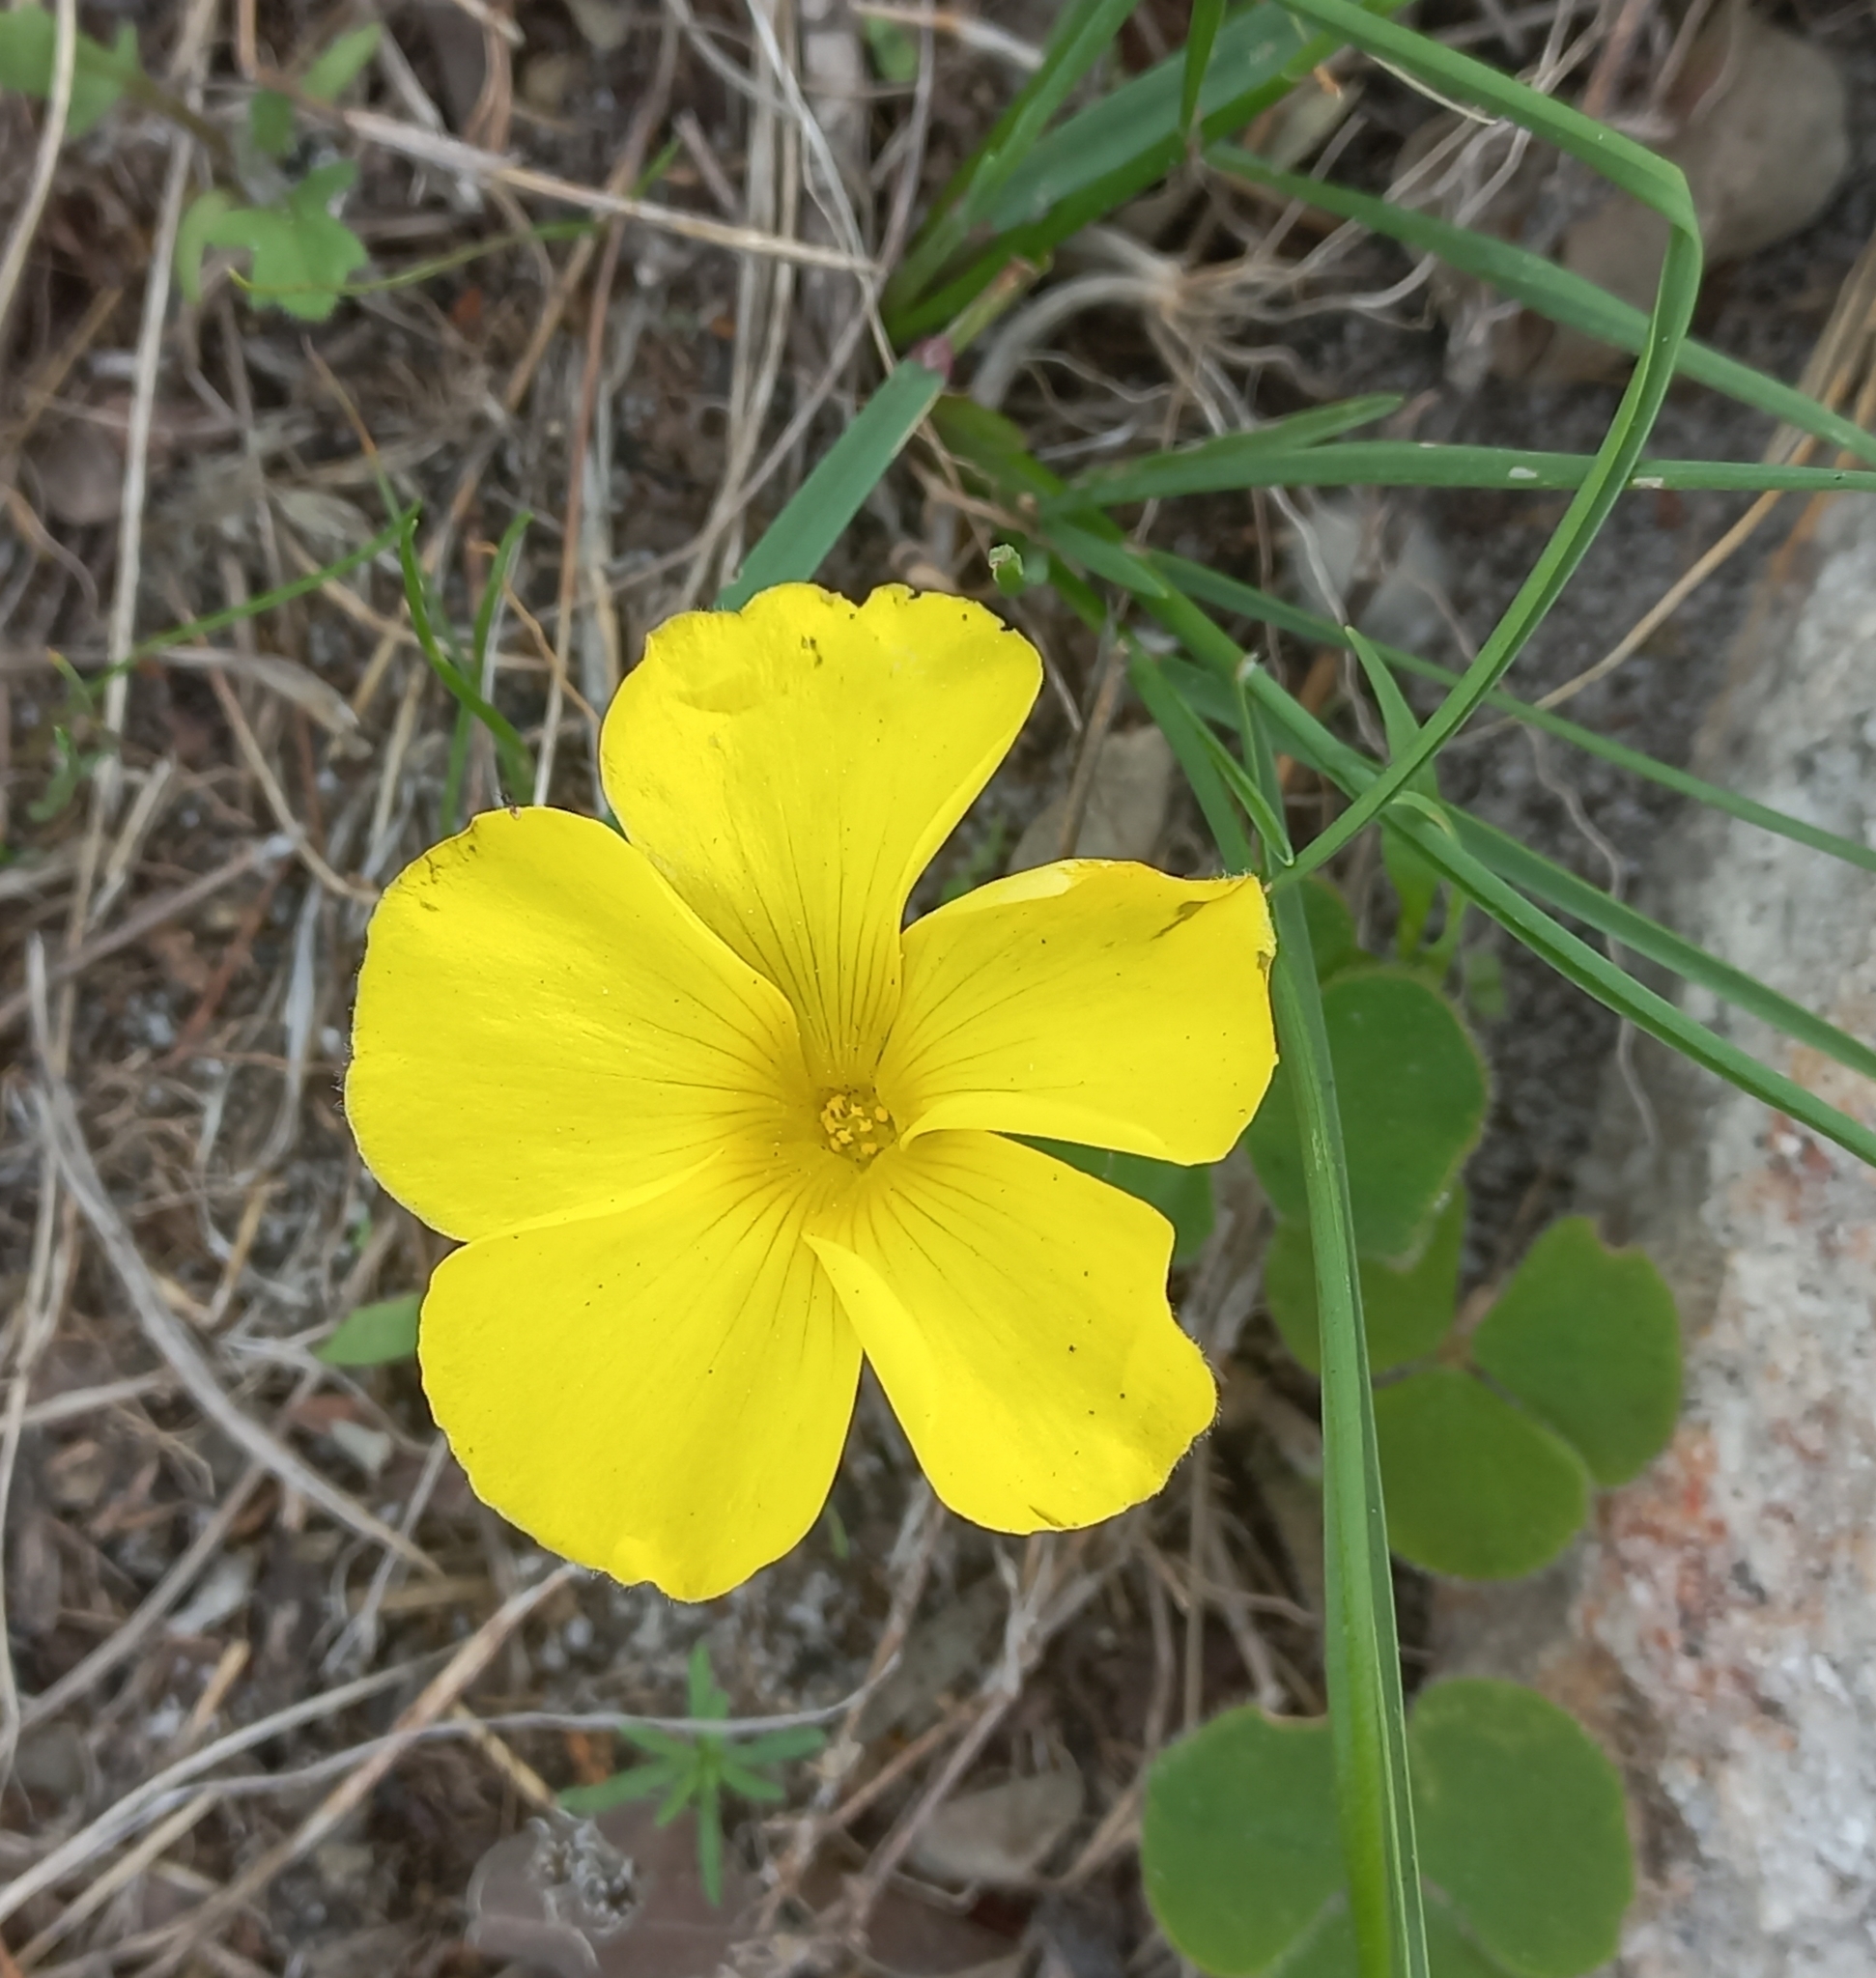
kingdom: Plantae
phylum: Tracheophyta
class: Magnoliopsida
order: Oxalidales
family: Oxalidaceae
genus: Oxalis
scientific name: Oxalis luteola
